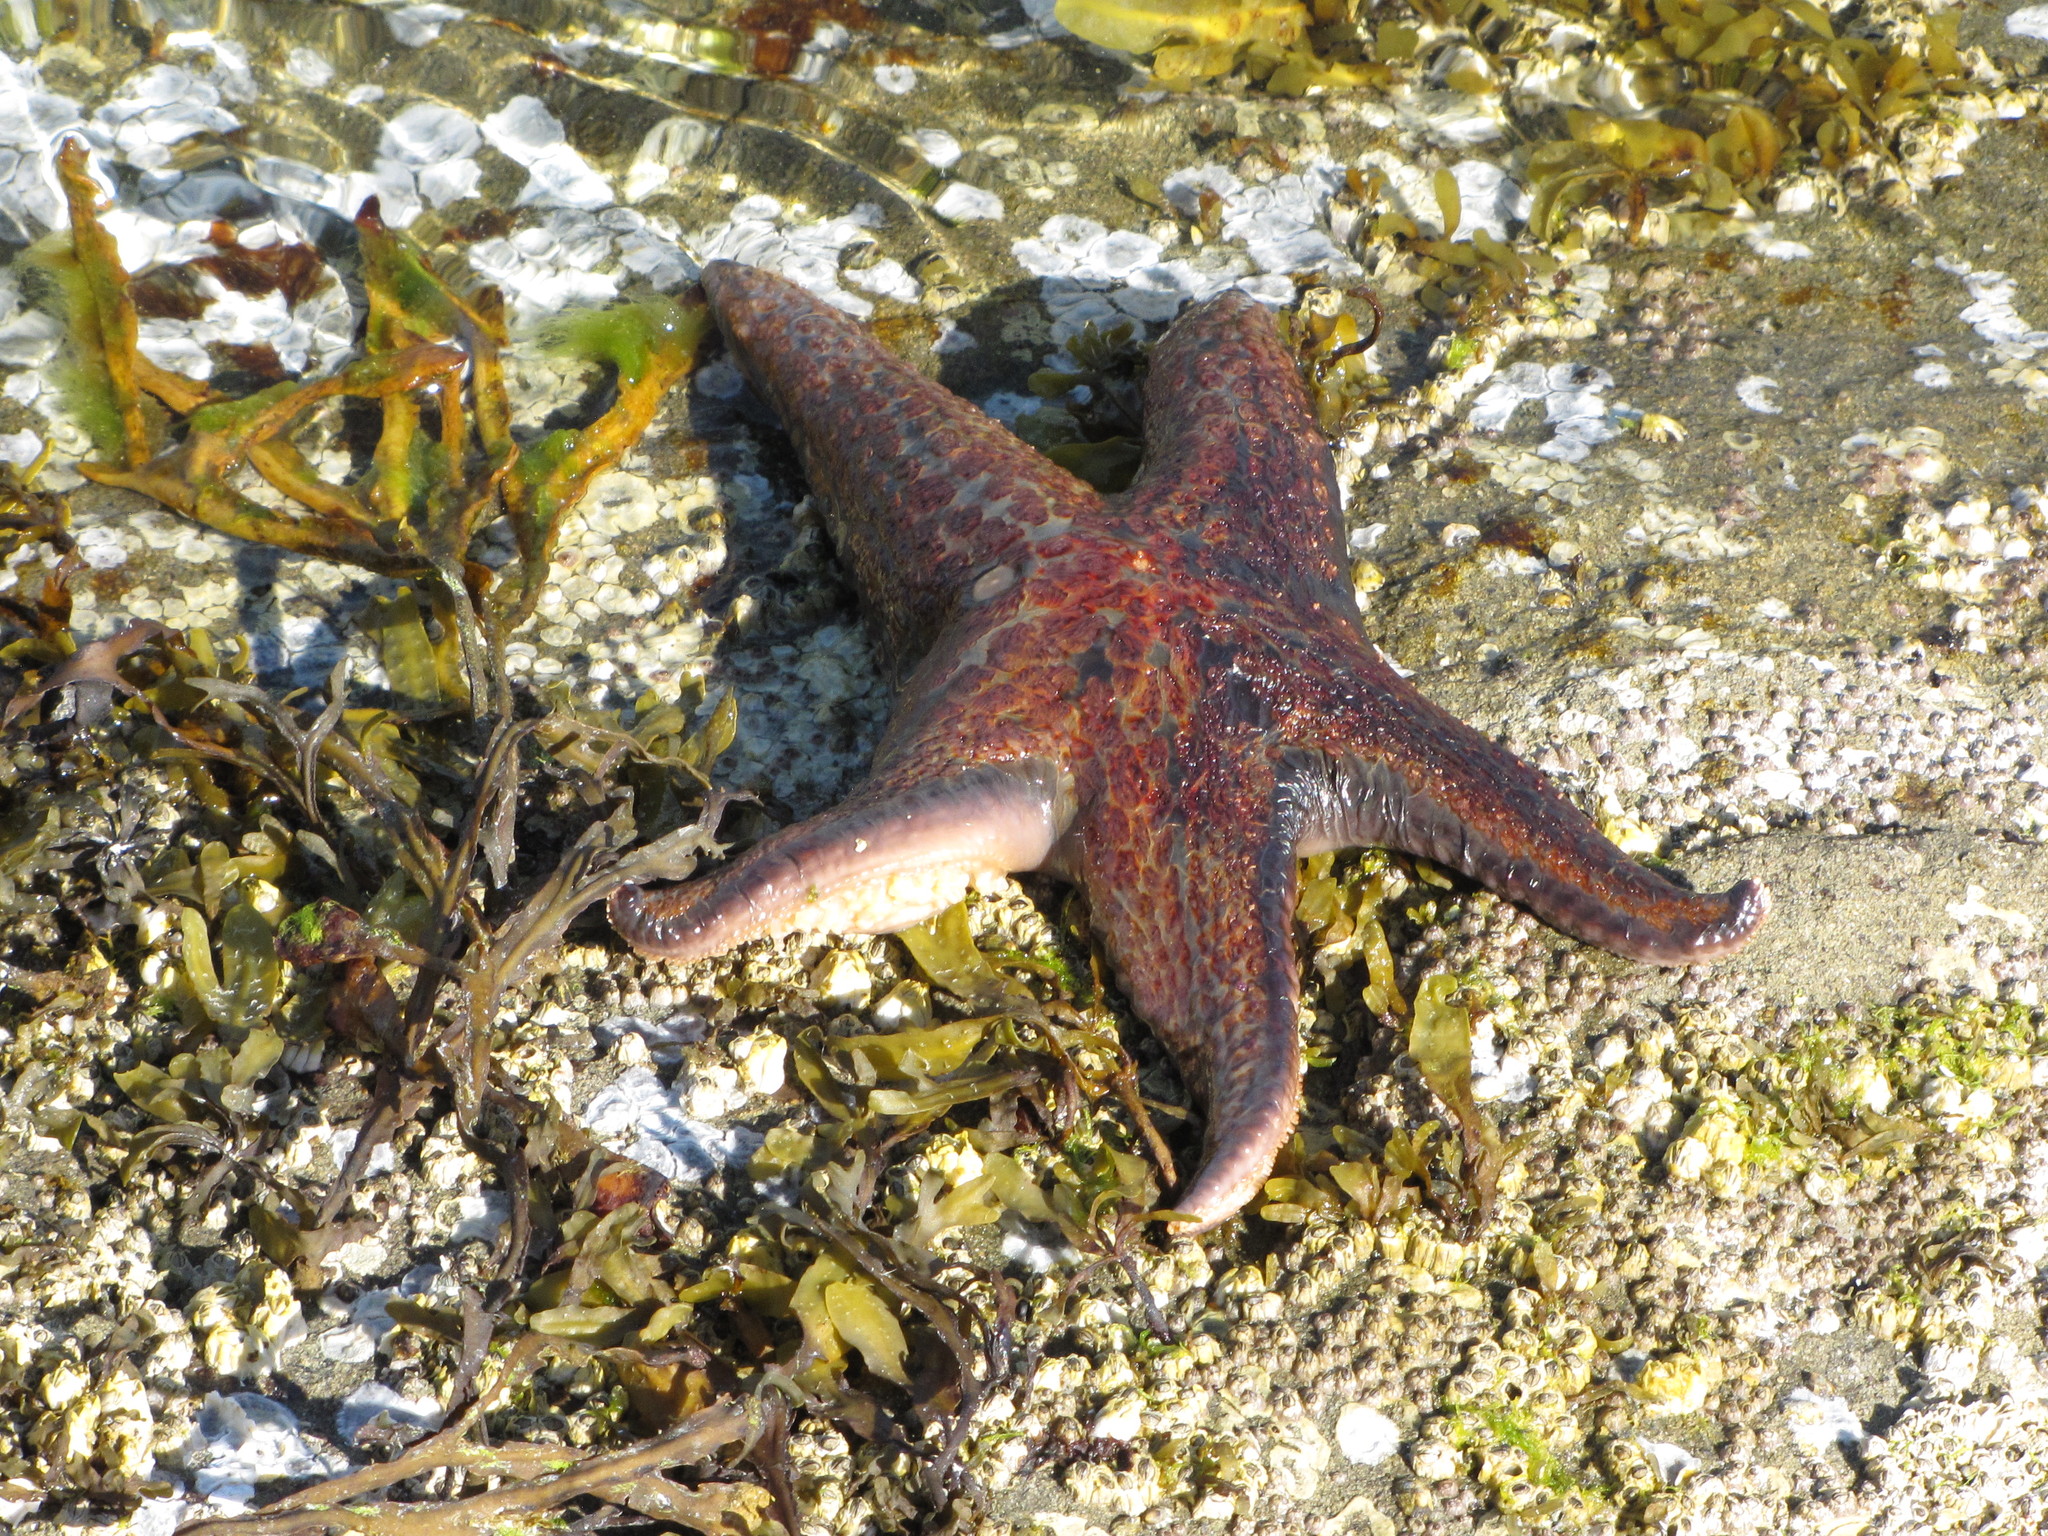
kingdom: Animalia
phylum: Echinodermata
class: Asteroidea
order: Valvatida
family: Asteropseidae
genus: Dermasterias
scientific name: Dermasterias imbricata
